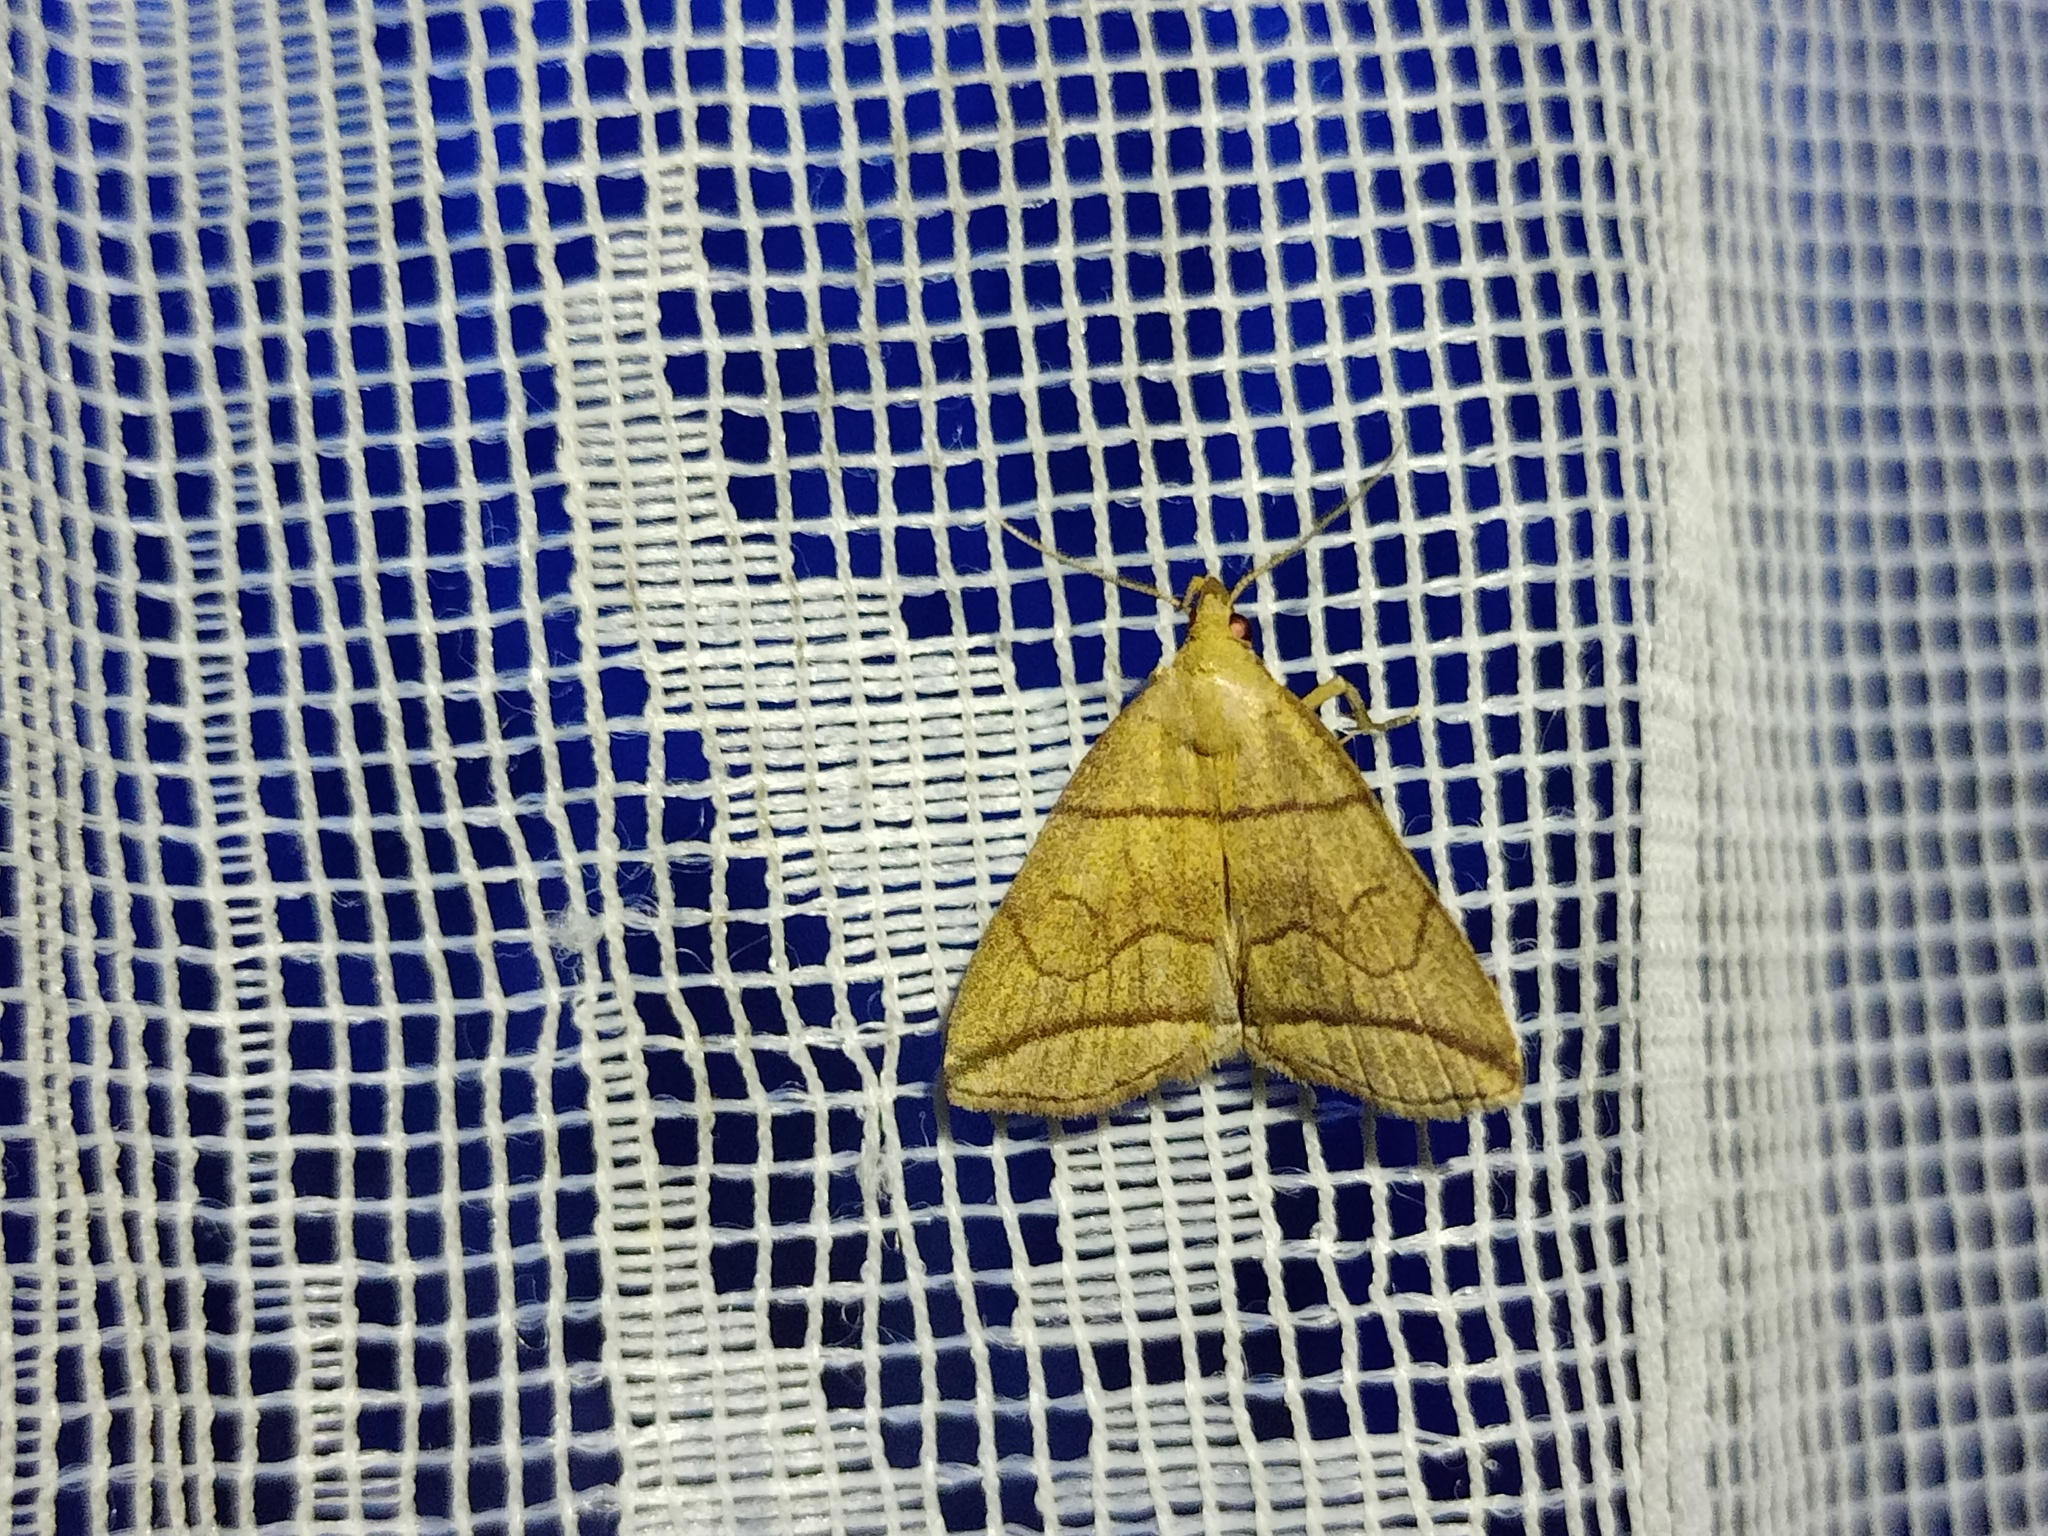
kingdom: Animalia
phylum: Arthropoda
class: Insecta
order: Lepidoptera
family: Erebidae
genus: Herminia
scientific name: Herminia grisealis
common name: Small fan-foot
